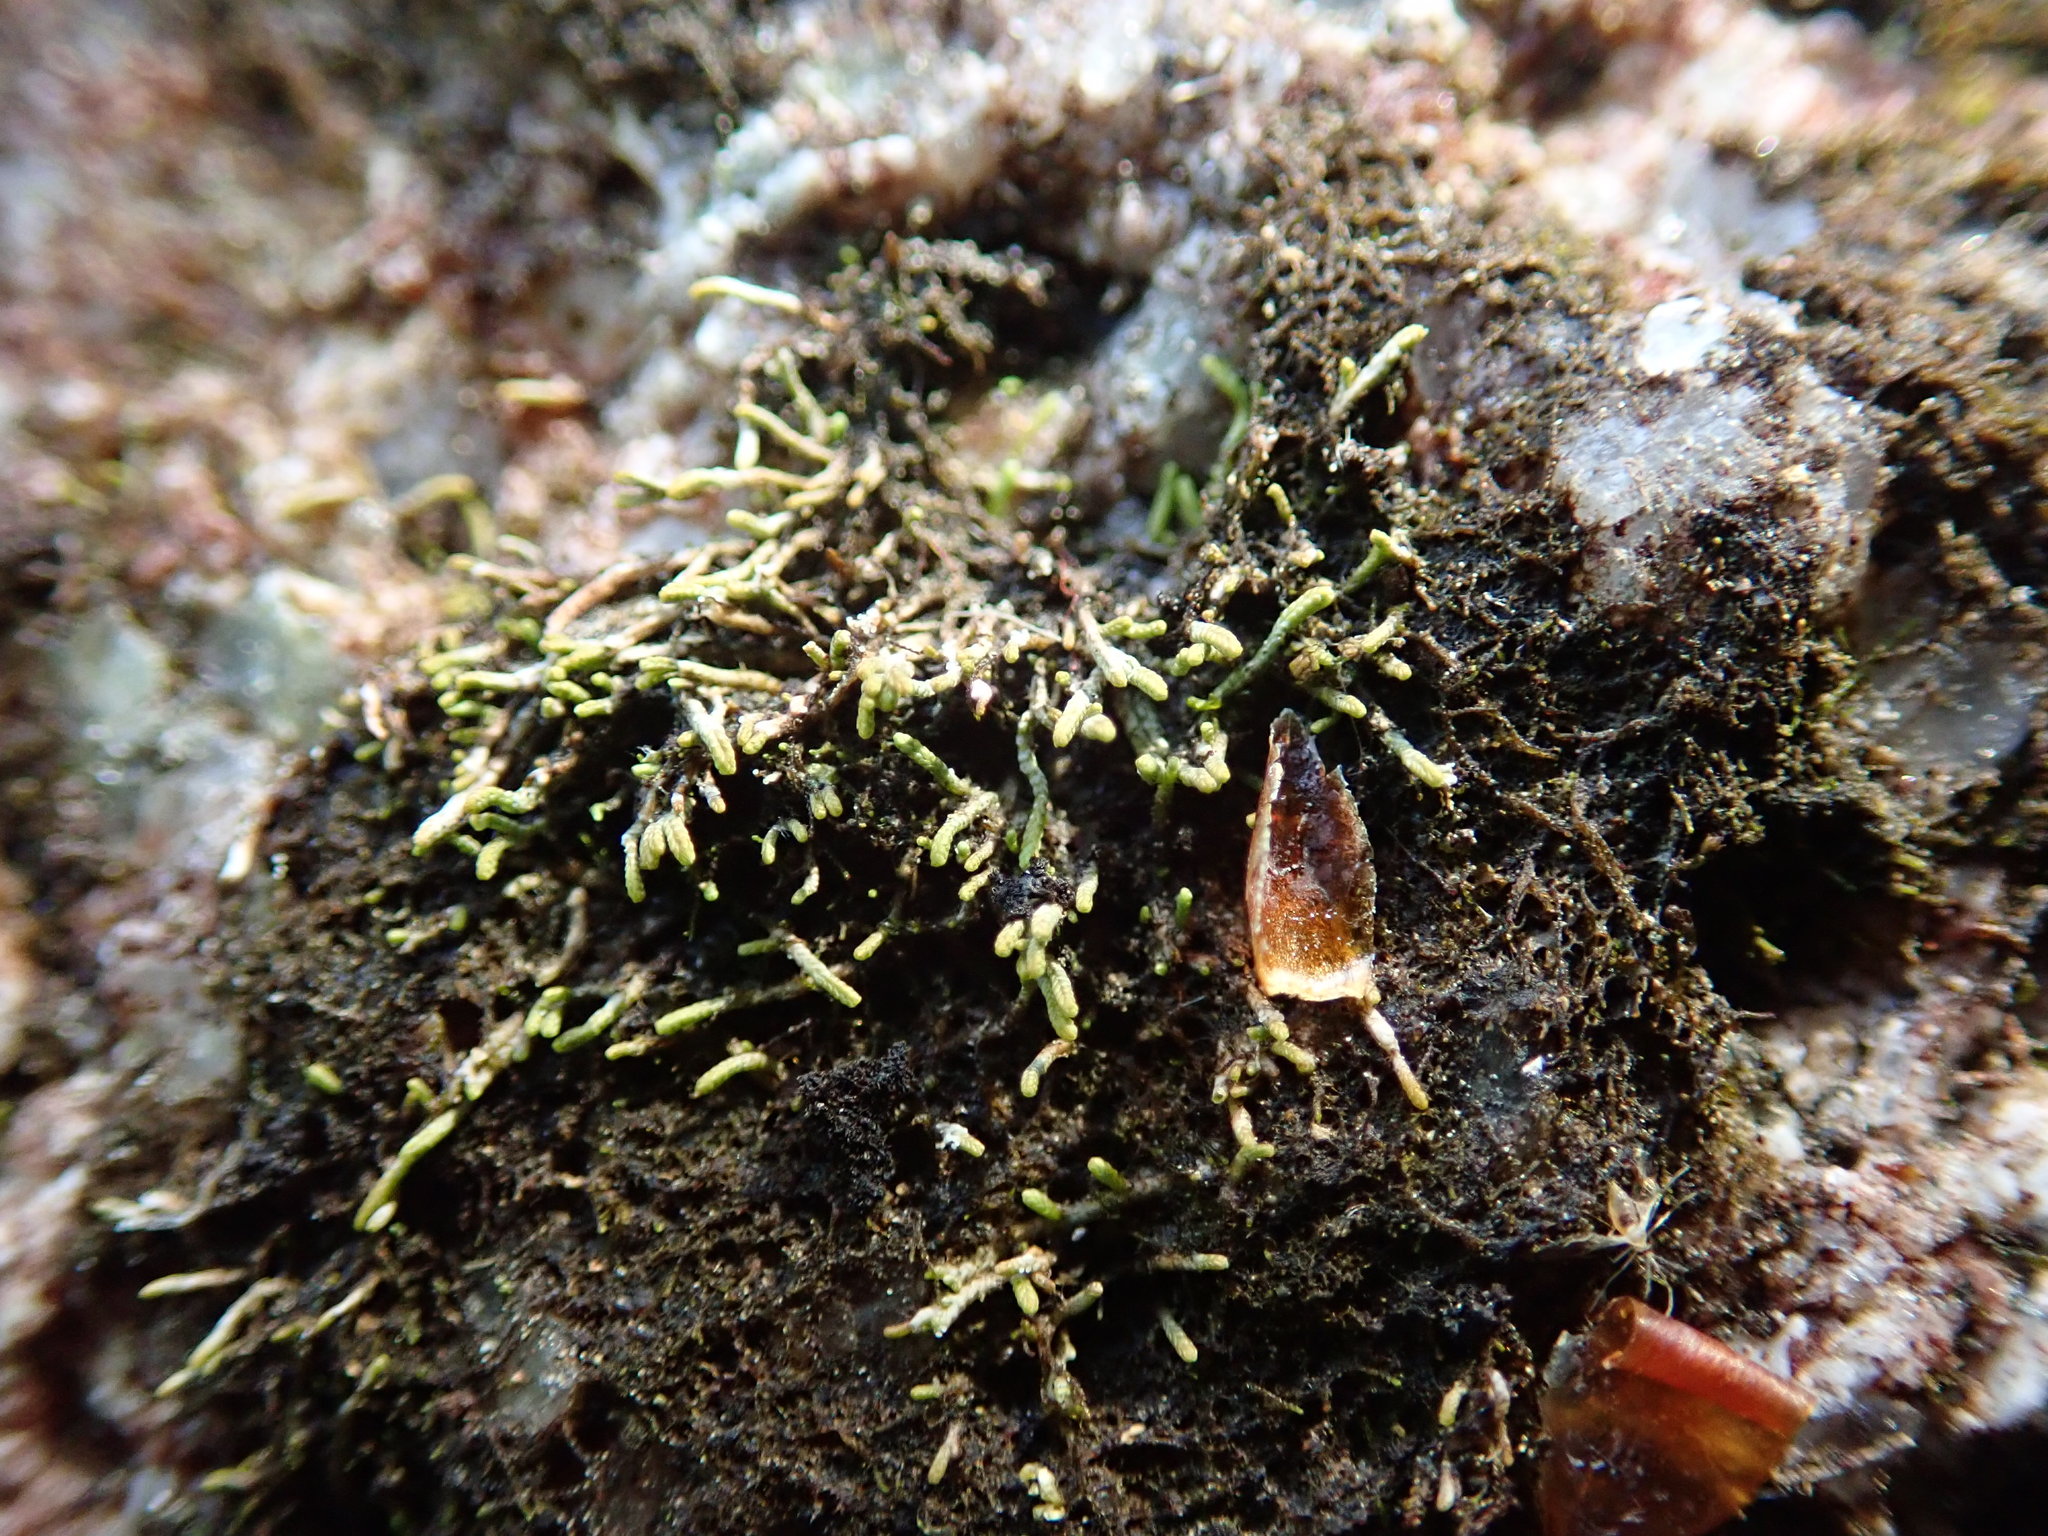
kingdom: Plantae
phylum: Marchantiophyta
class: Jungermanniopsida
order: Jungermanniales
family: Gymnomitriaceae
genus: Gymnomitrion
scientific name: Gymnomitrion obtusum
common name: White frostwort
